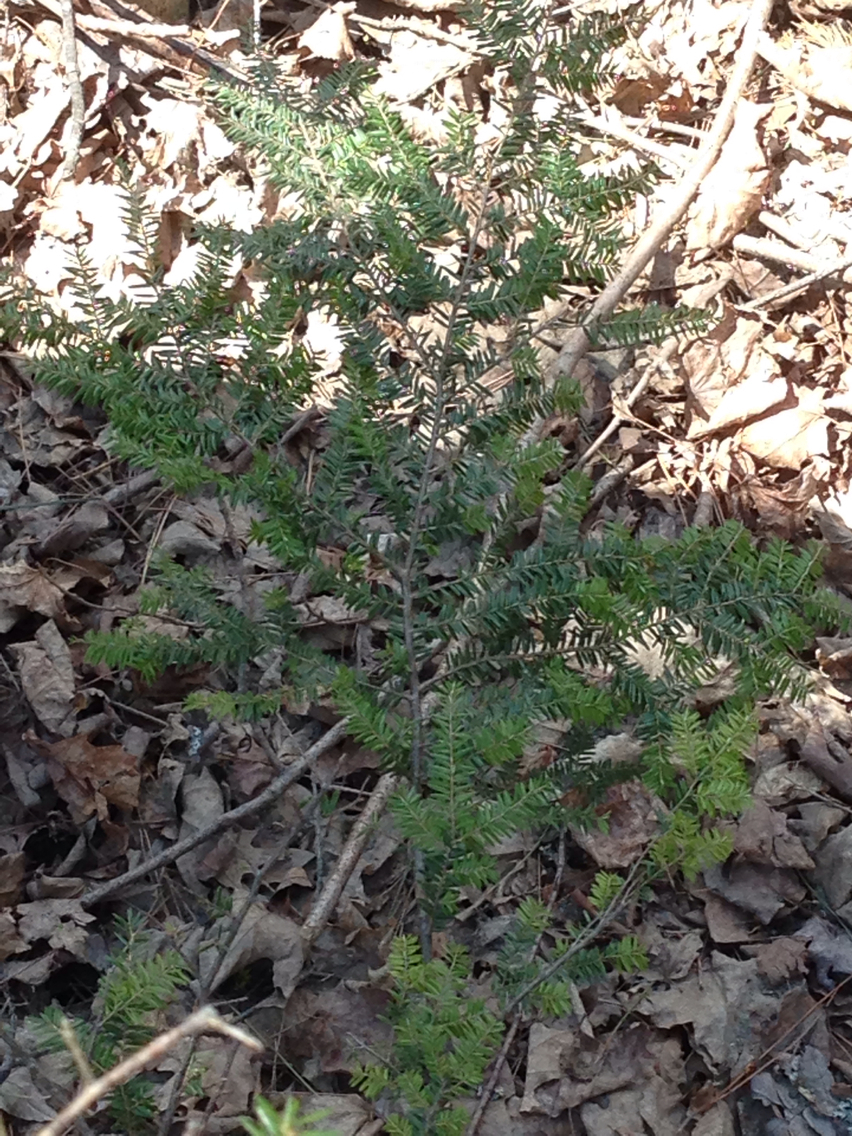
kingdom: Plantae
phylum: Tracheophyta
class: Pinopsida
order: Pinales
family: Pinaceae
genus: Tsuga
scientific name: Tsuga canadensis
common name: Eastern hemlock
